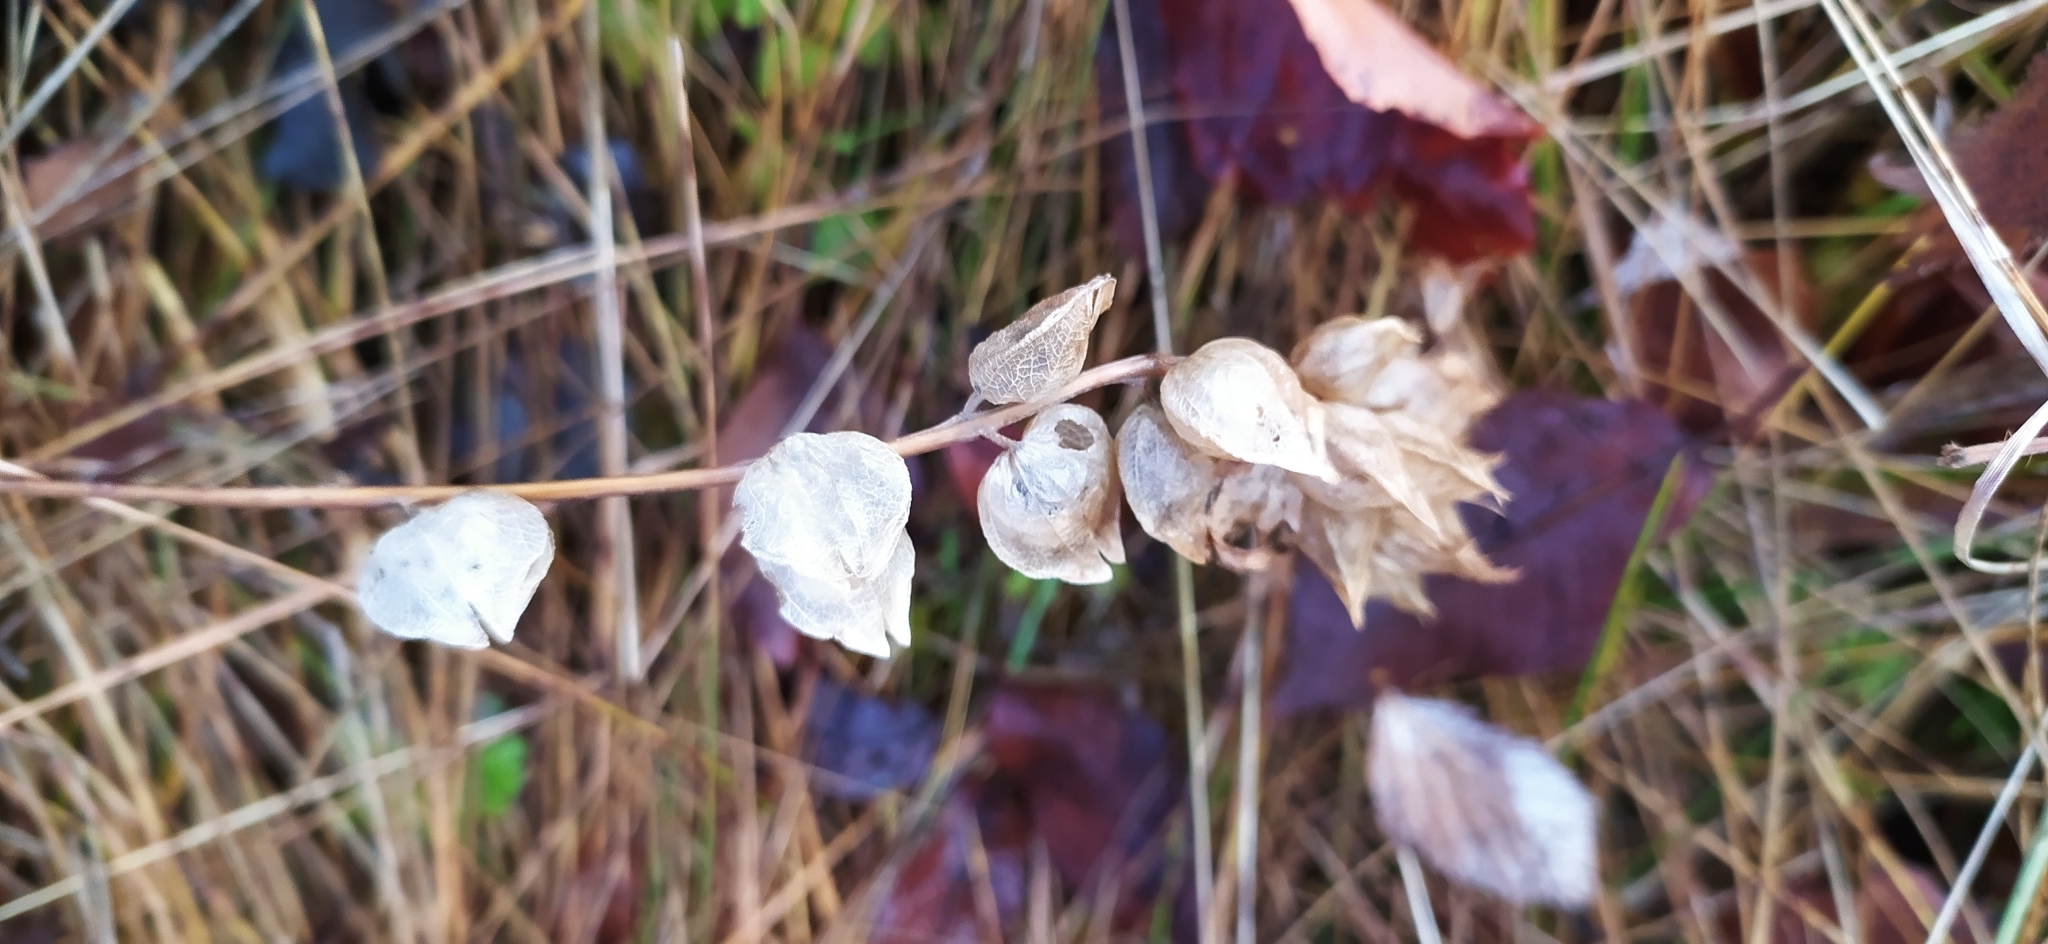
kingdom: Plantae
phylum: Tracheophyta
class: Magnoliopsida
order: Lamiales
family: Orobanchaceae
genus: Rhinanthus
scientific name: Rhinanthus
